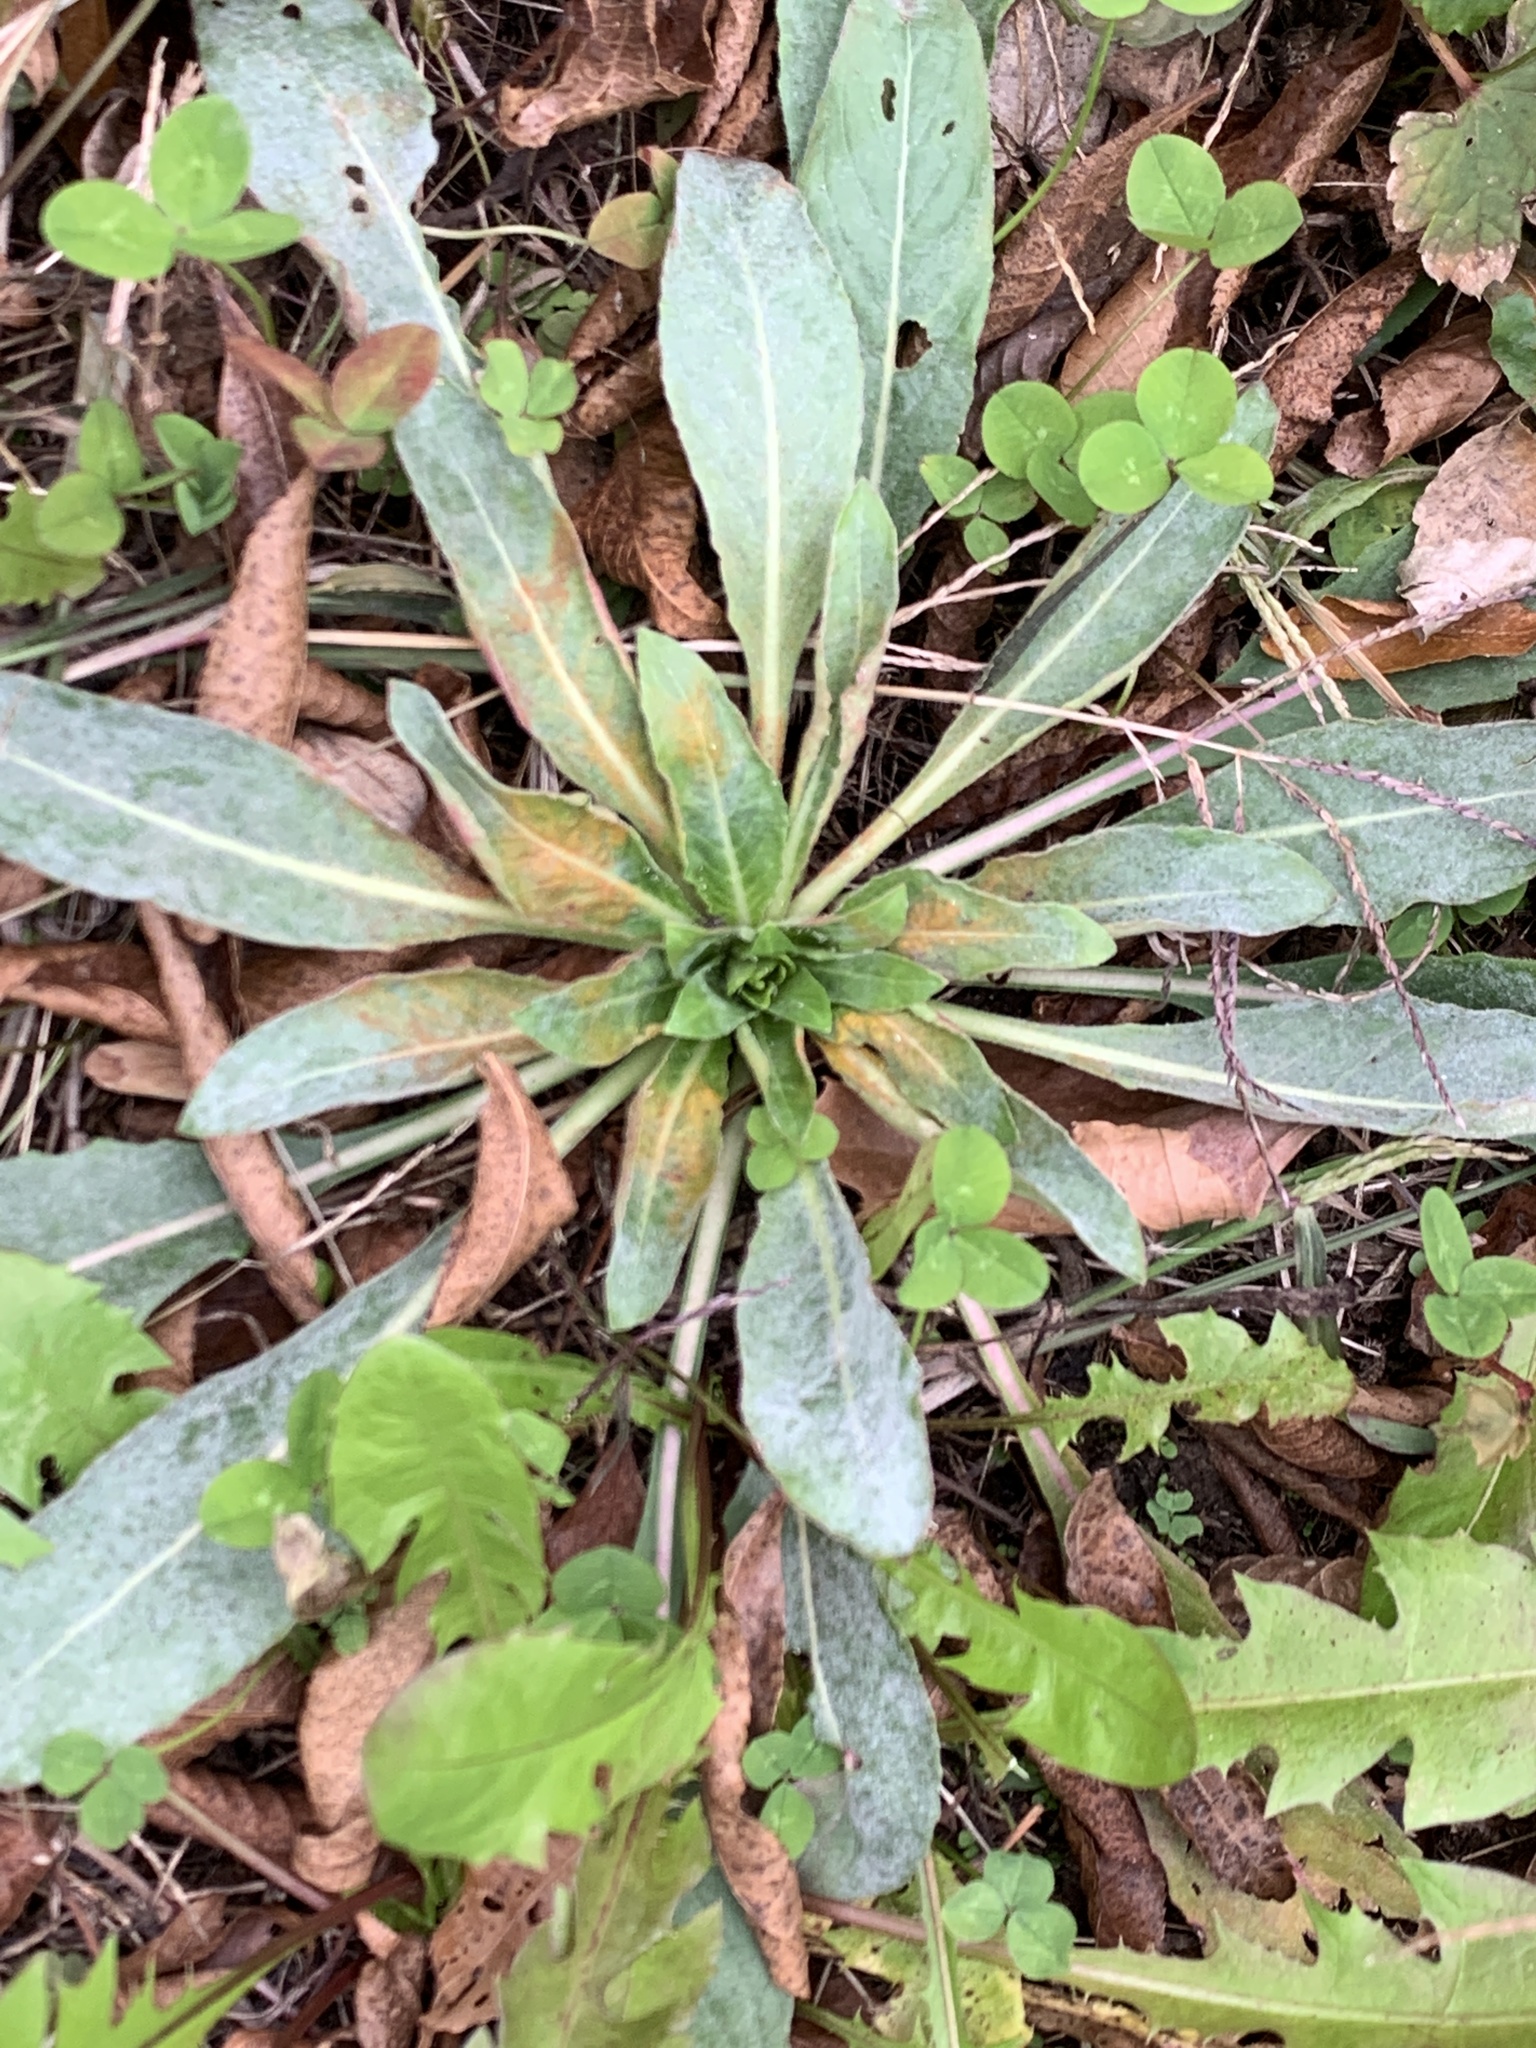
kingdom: Plantae
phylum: Tracheophyta
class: Magnoliopsida
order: Myrtales
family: Onagraceae
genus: Oenothera
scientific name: Oenothera biennis
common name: Common evening-primrose
